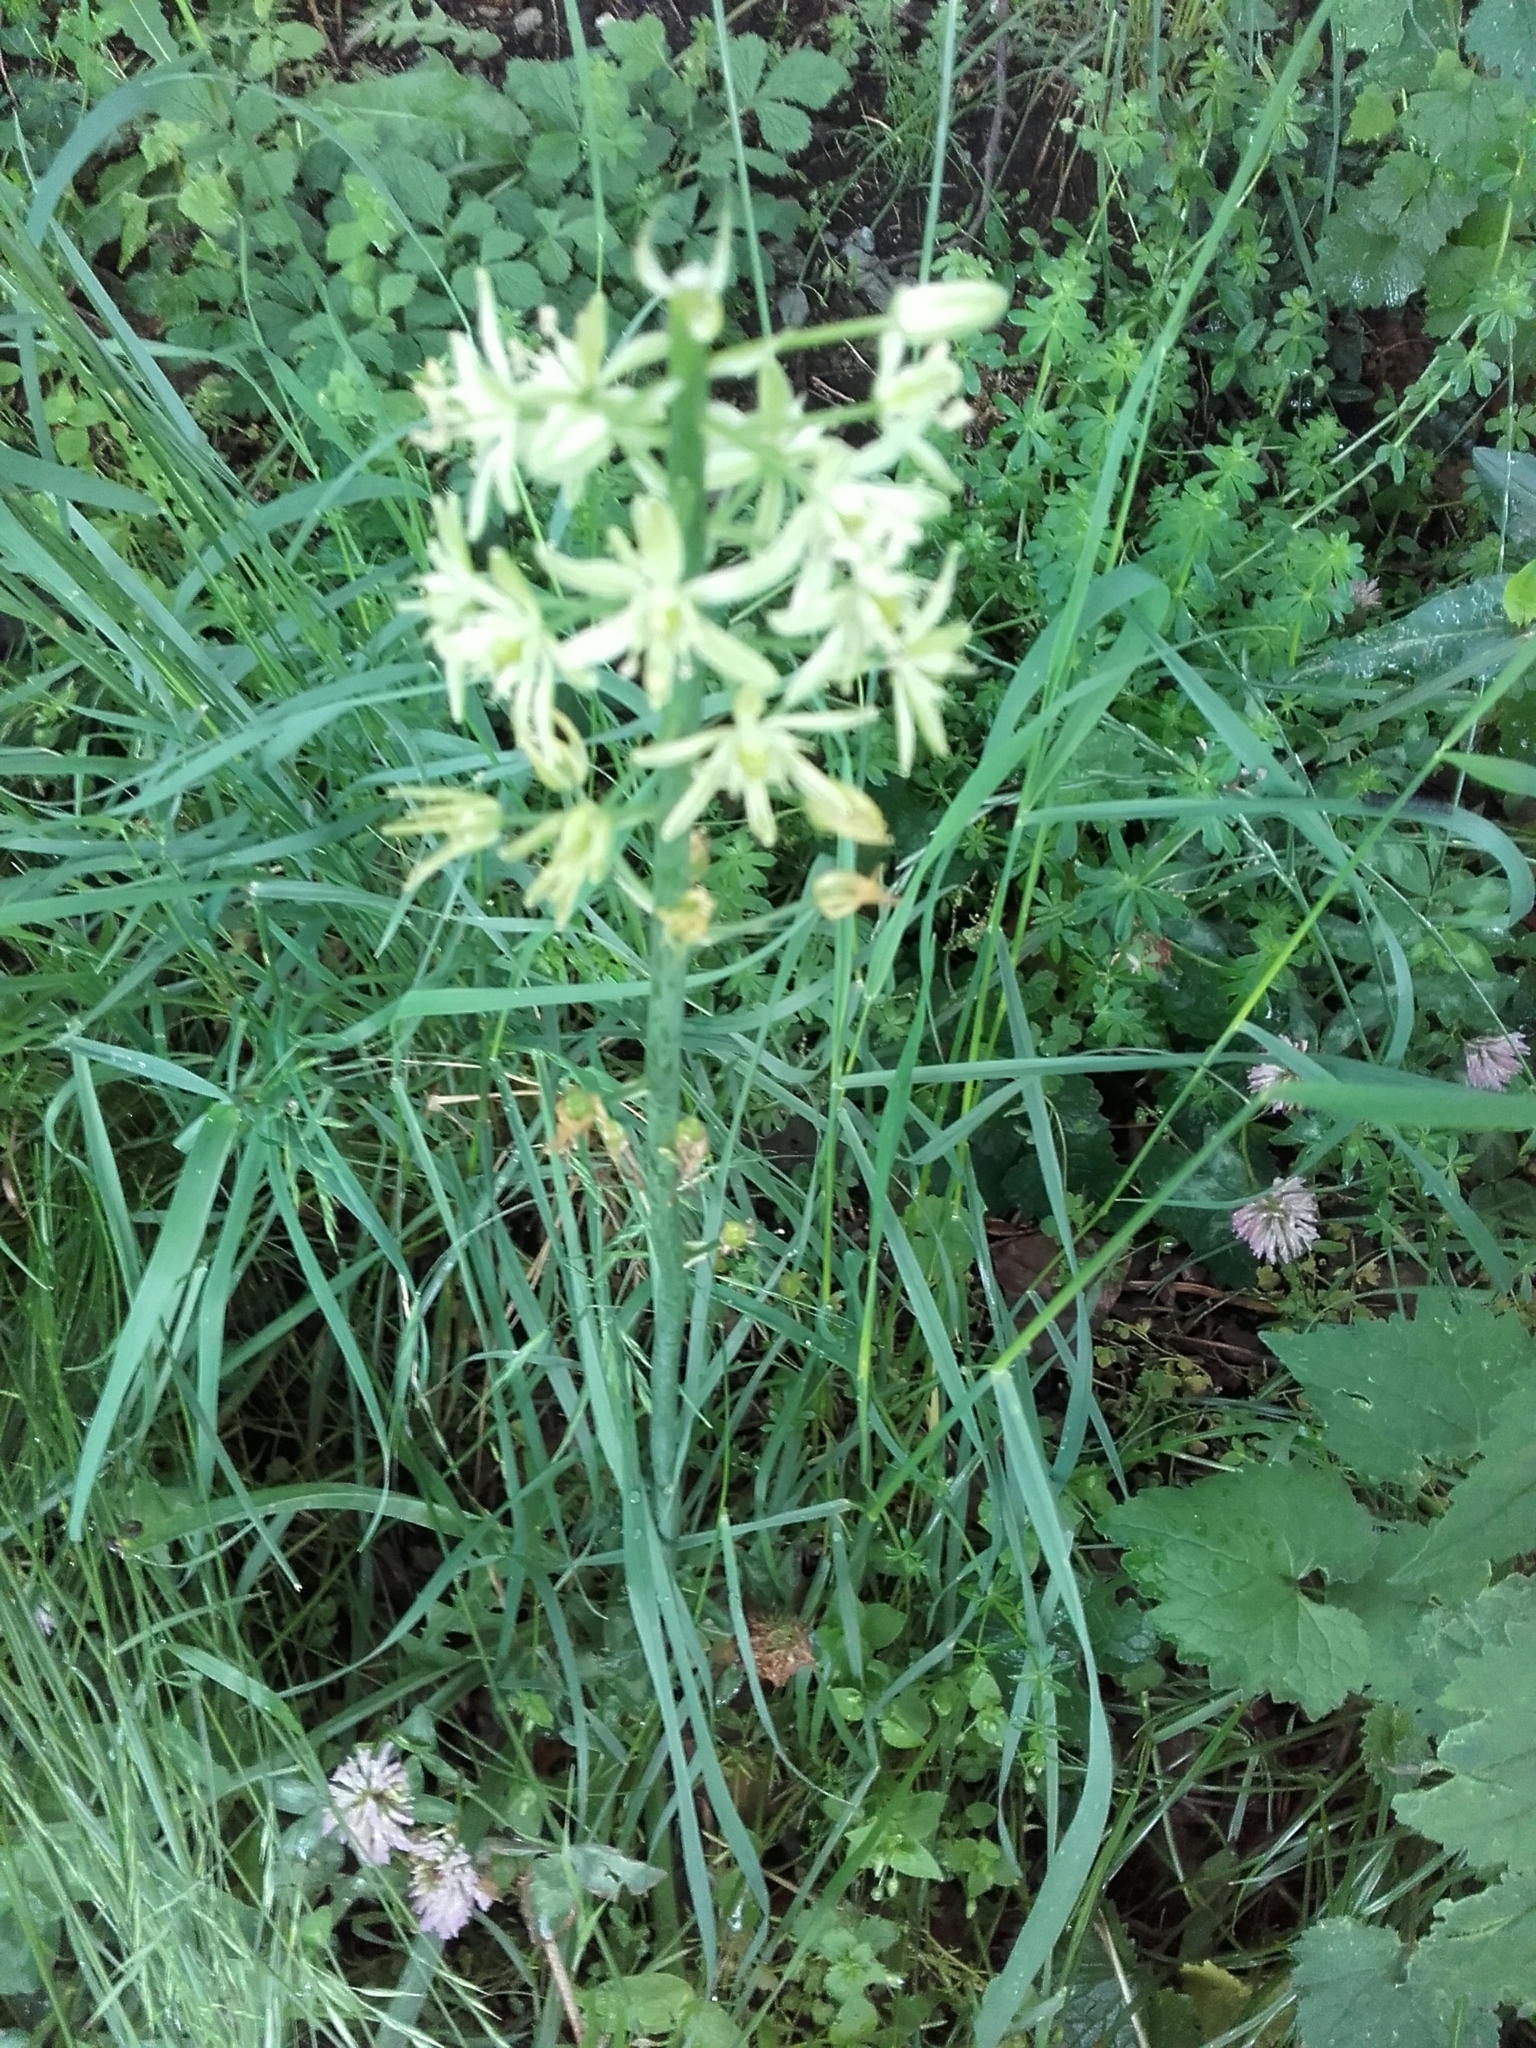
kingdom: Plantae
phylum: Tracheophyta
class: Liliopsida
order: Asparagales
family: Asparagaceae
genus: Ornithogalum
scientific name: Ornithogalum pyrenaicum
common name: Spiked star-of-bethlehem
